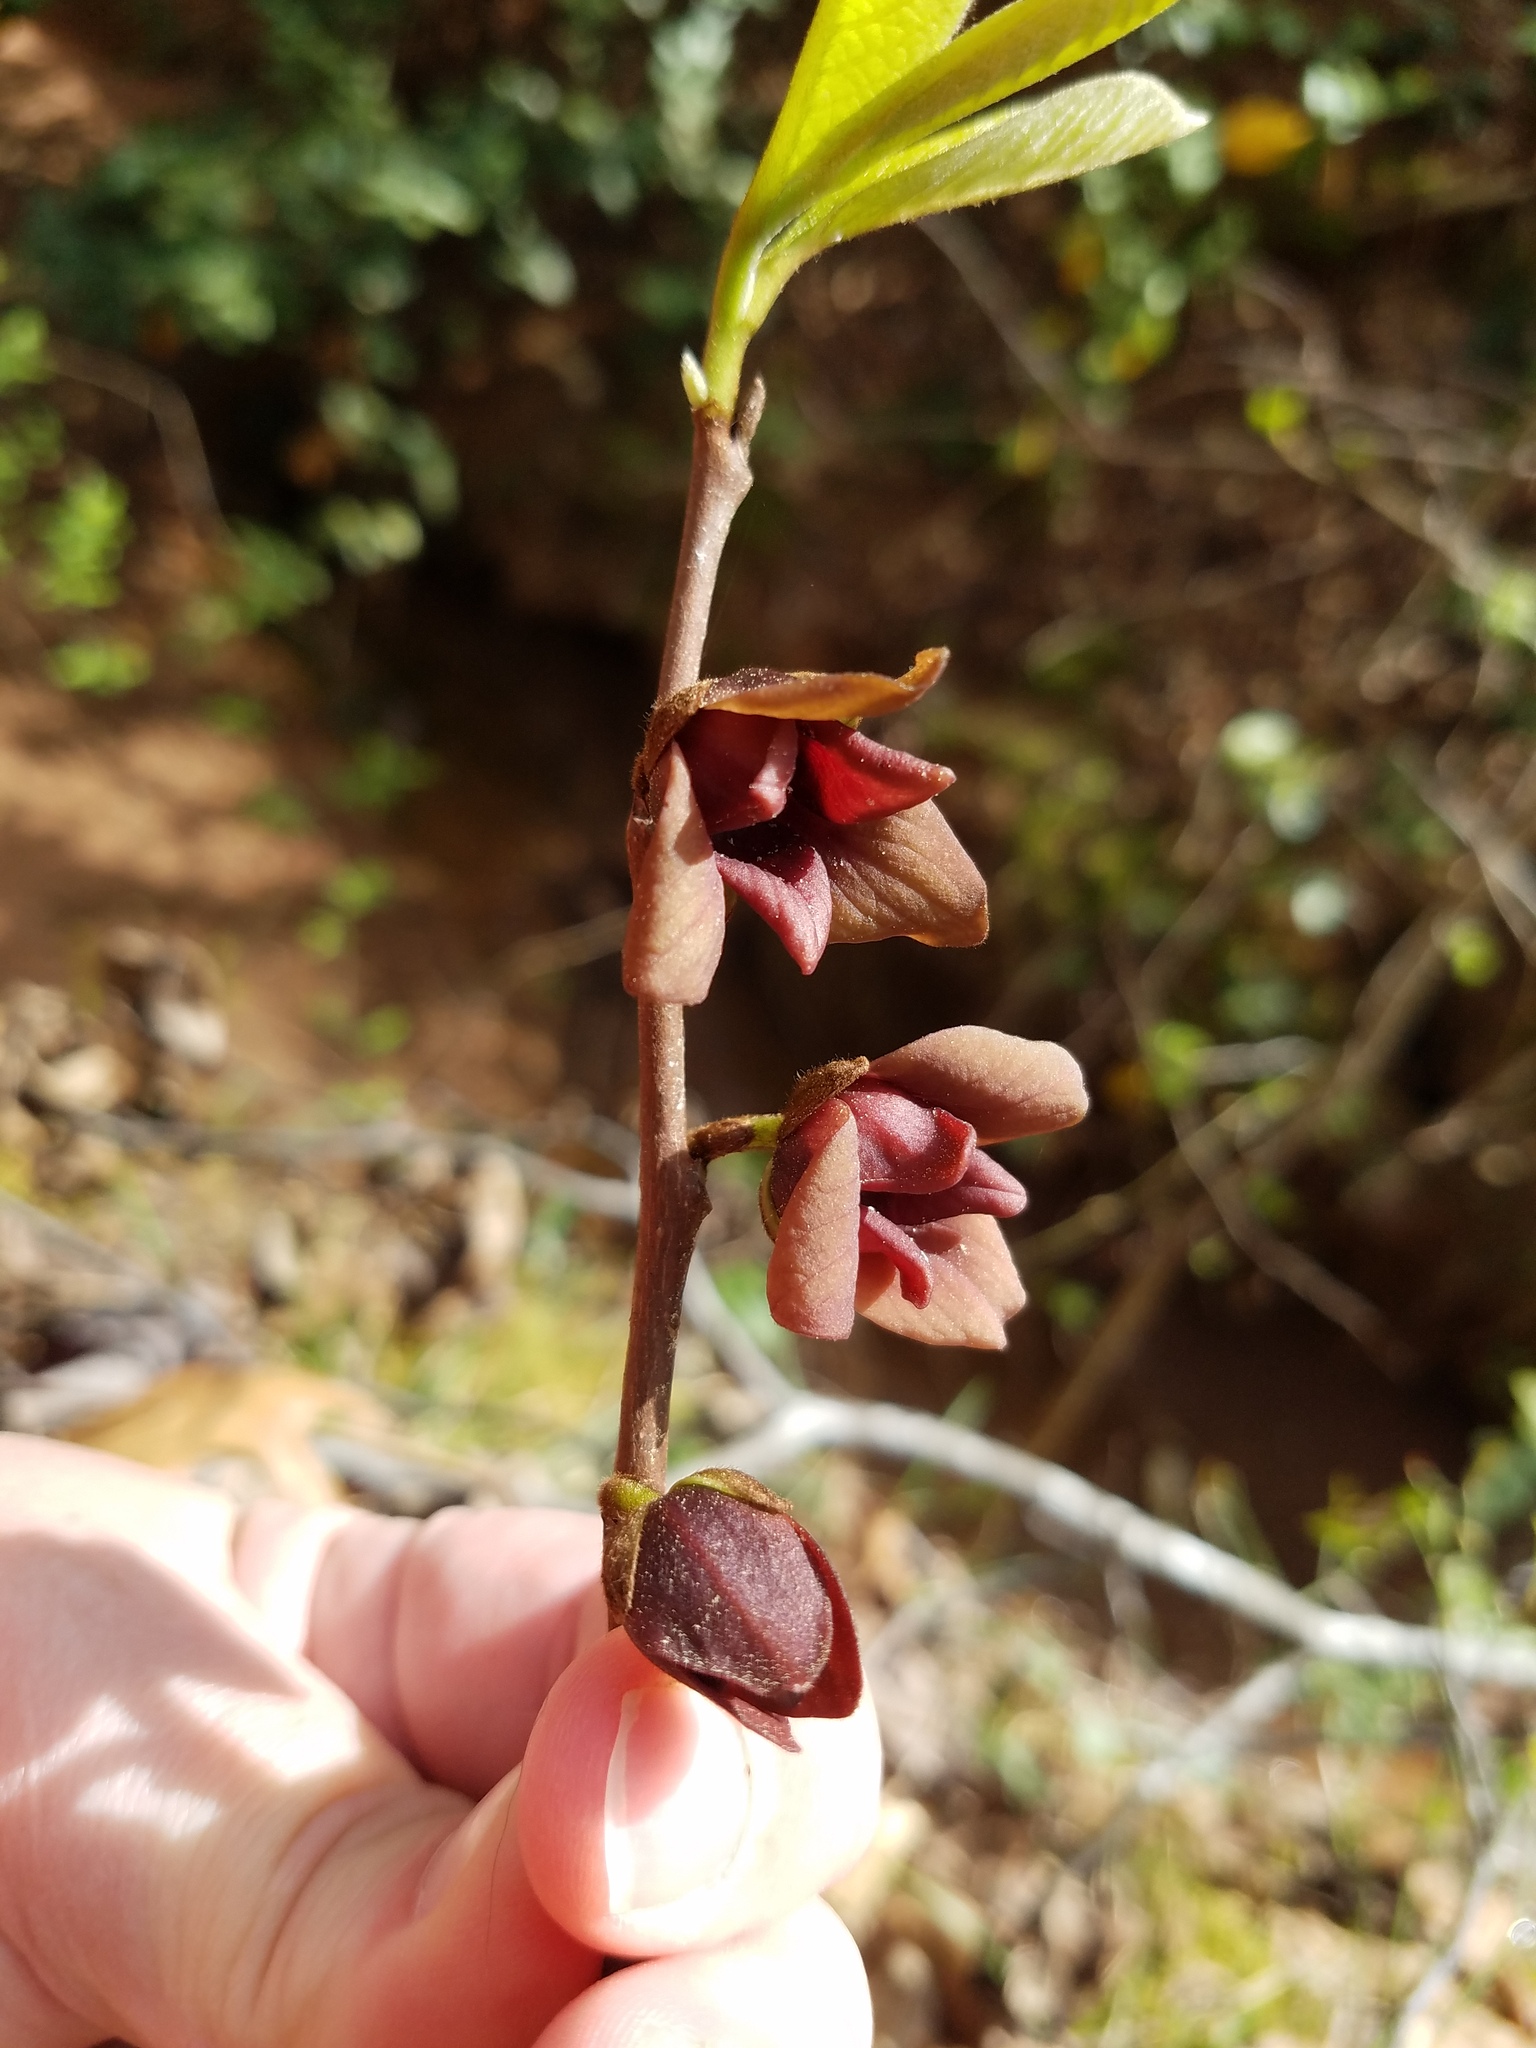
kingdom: Plantae
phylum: Tracheophyta
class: Magnoliopsida
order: Magnoliales
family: Annonaceae
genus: Asimina
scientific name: Asimina piedmontana
